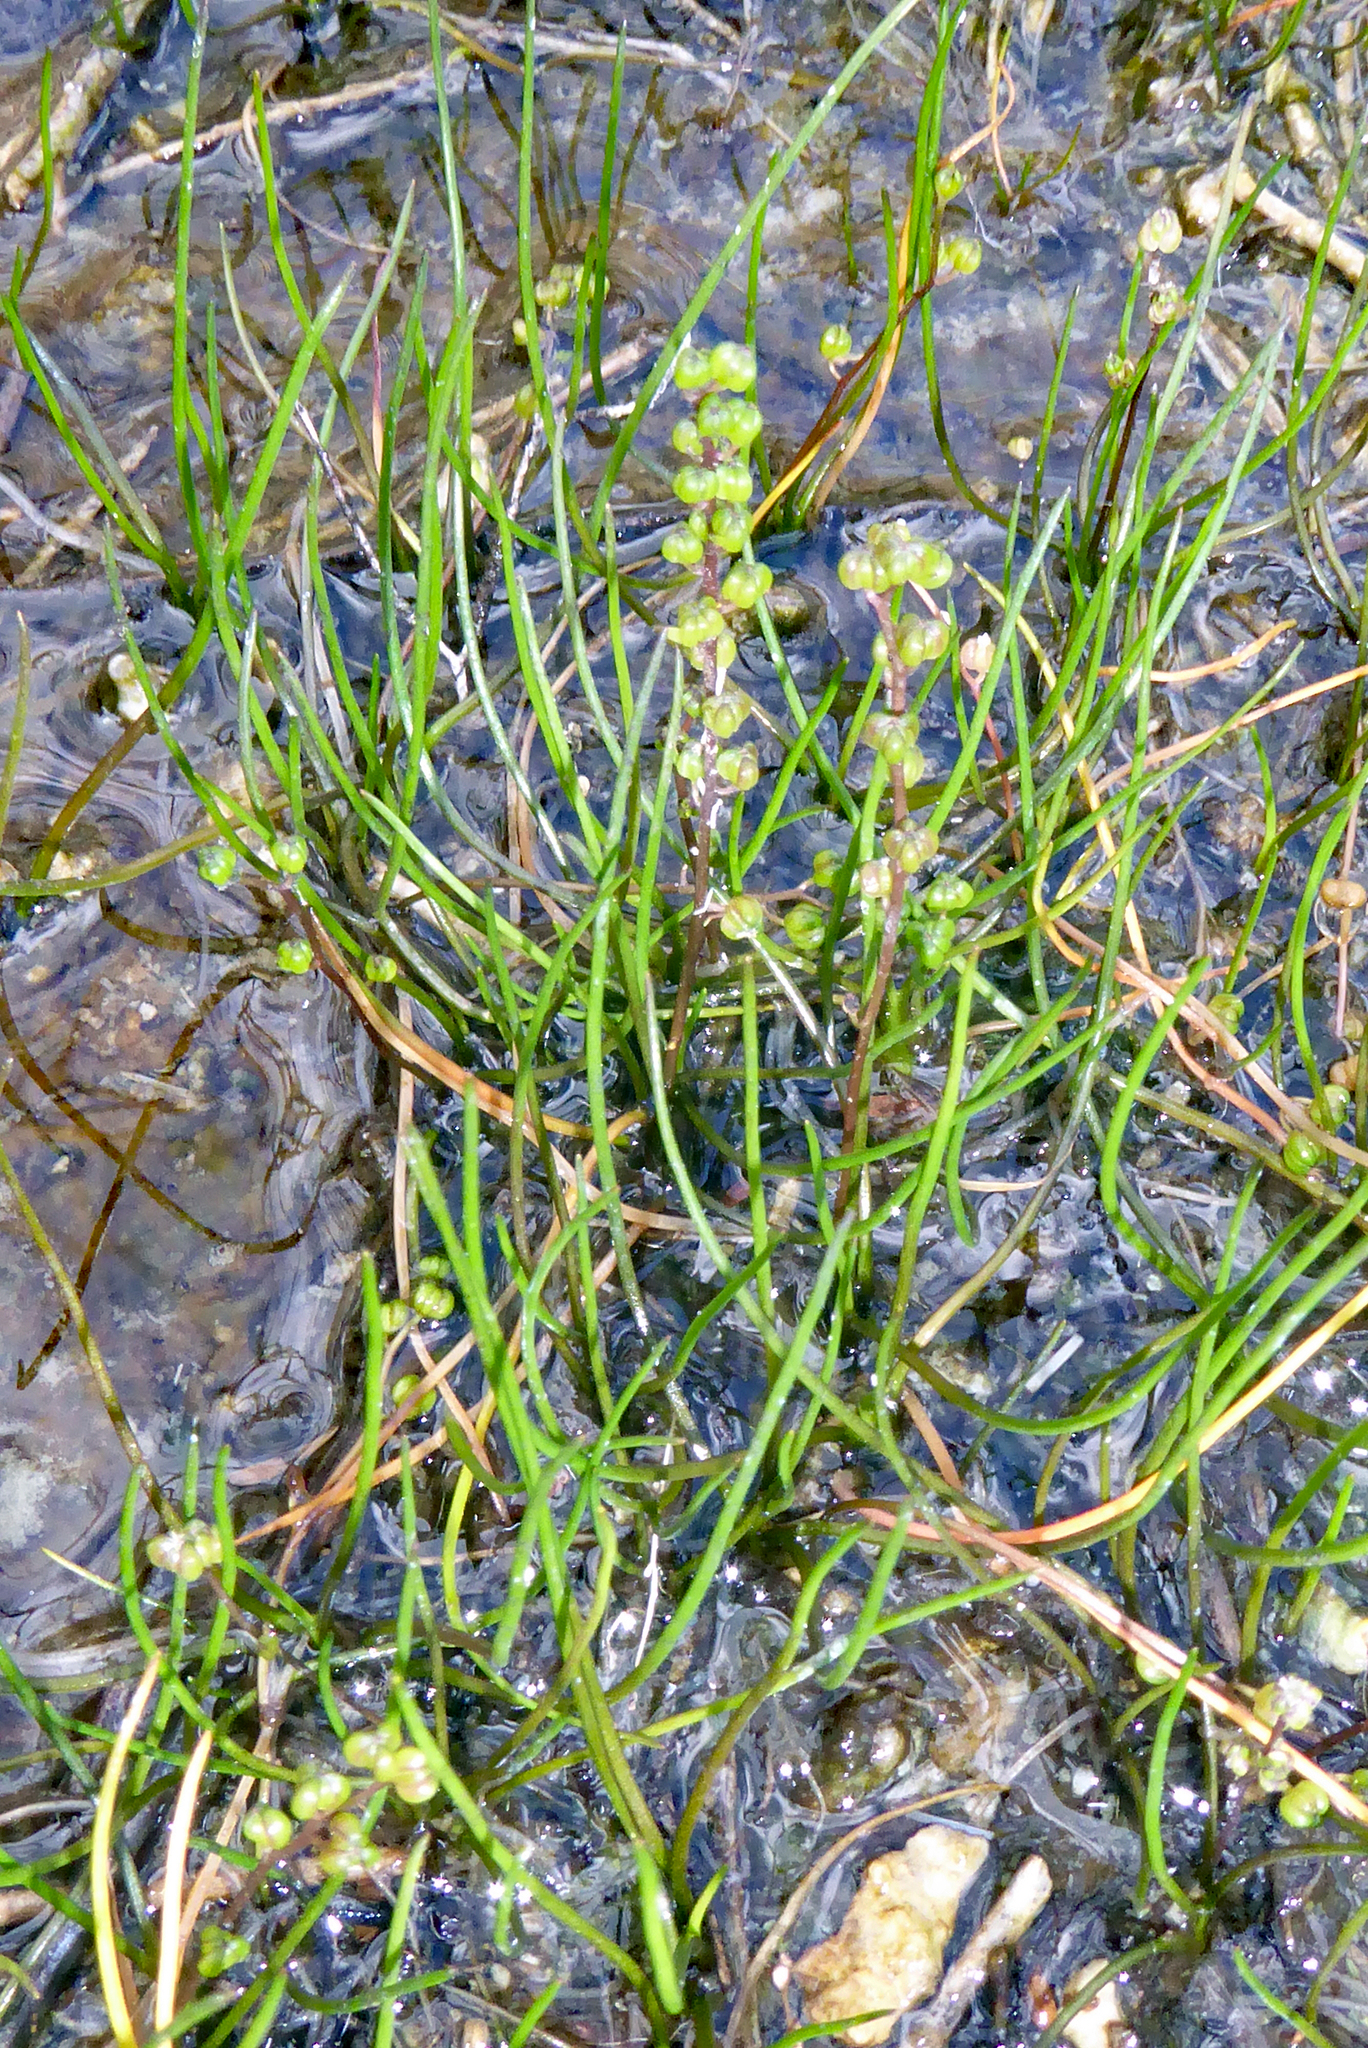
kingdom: Plantae
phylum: Tracheophyta
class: Liliopsida
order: Alismatales
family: Juncaginaceae
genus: Triglochin
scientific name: Triglochin striata
